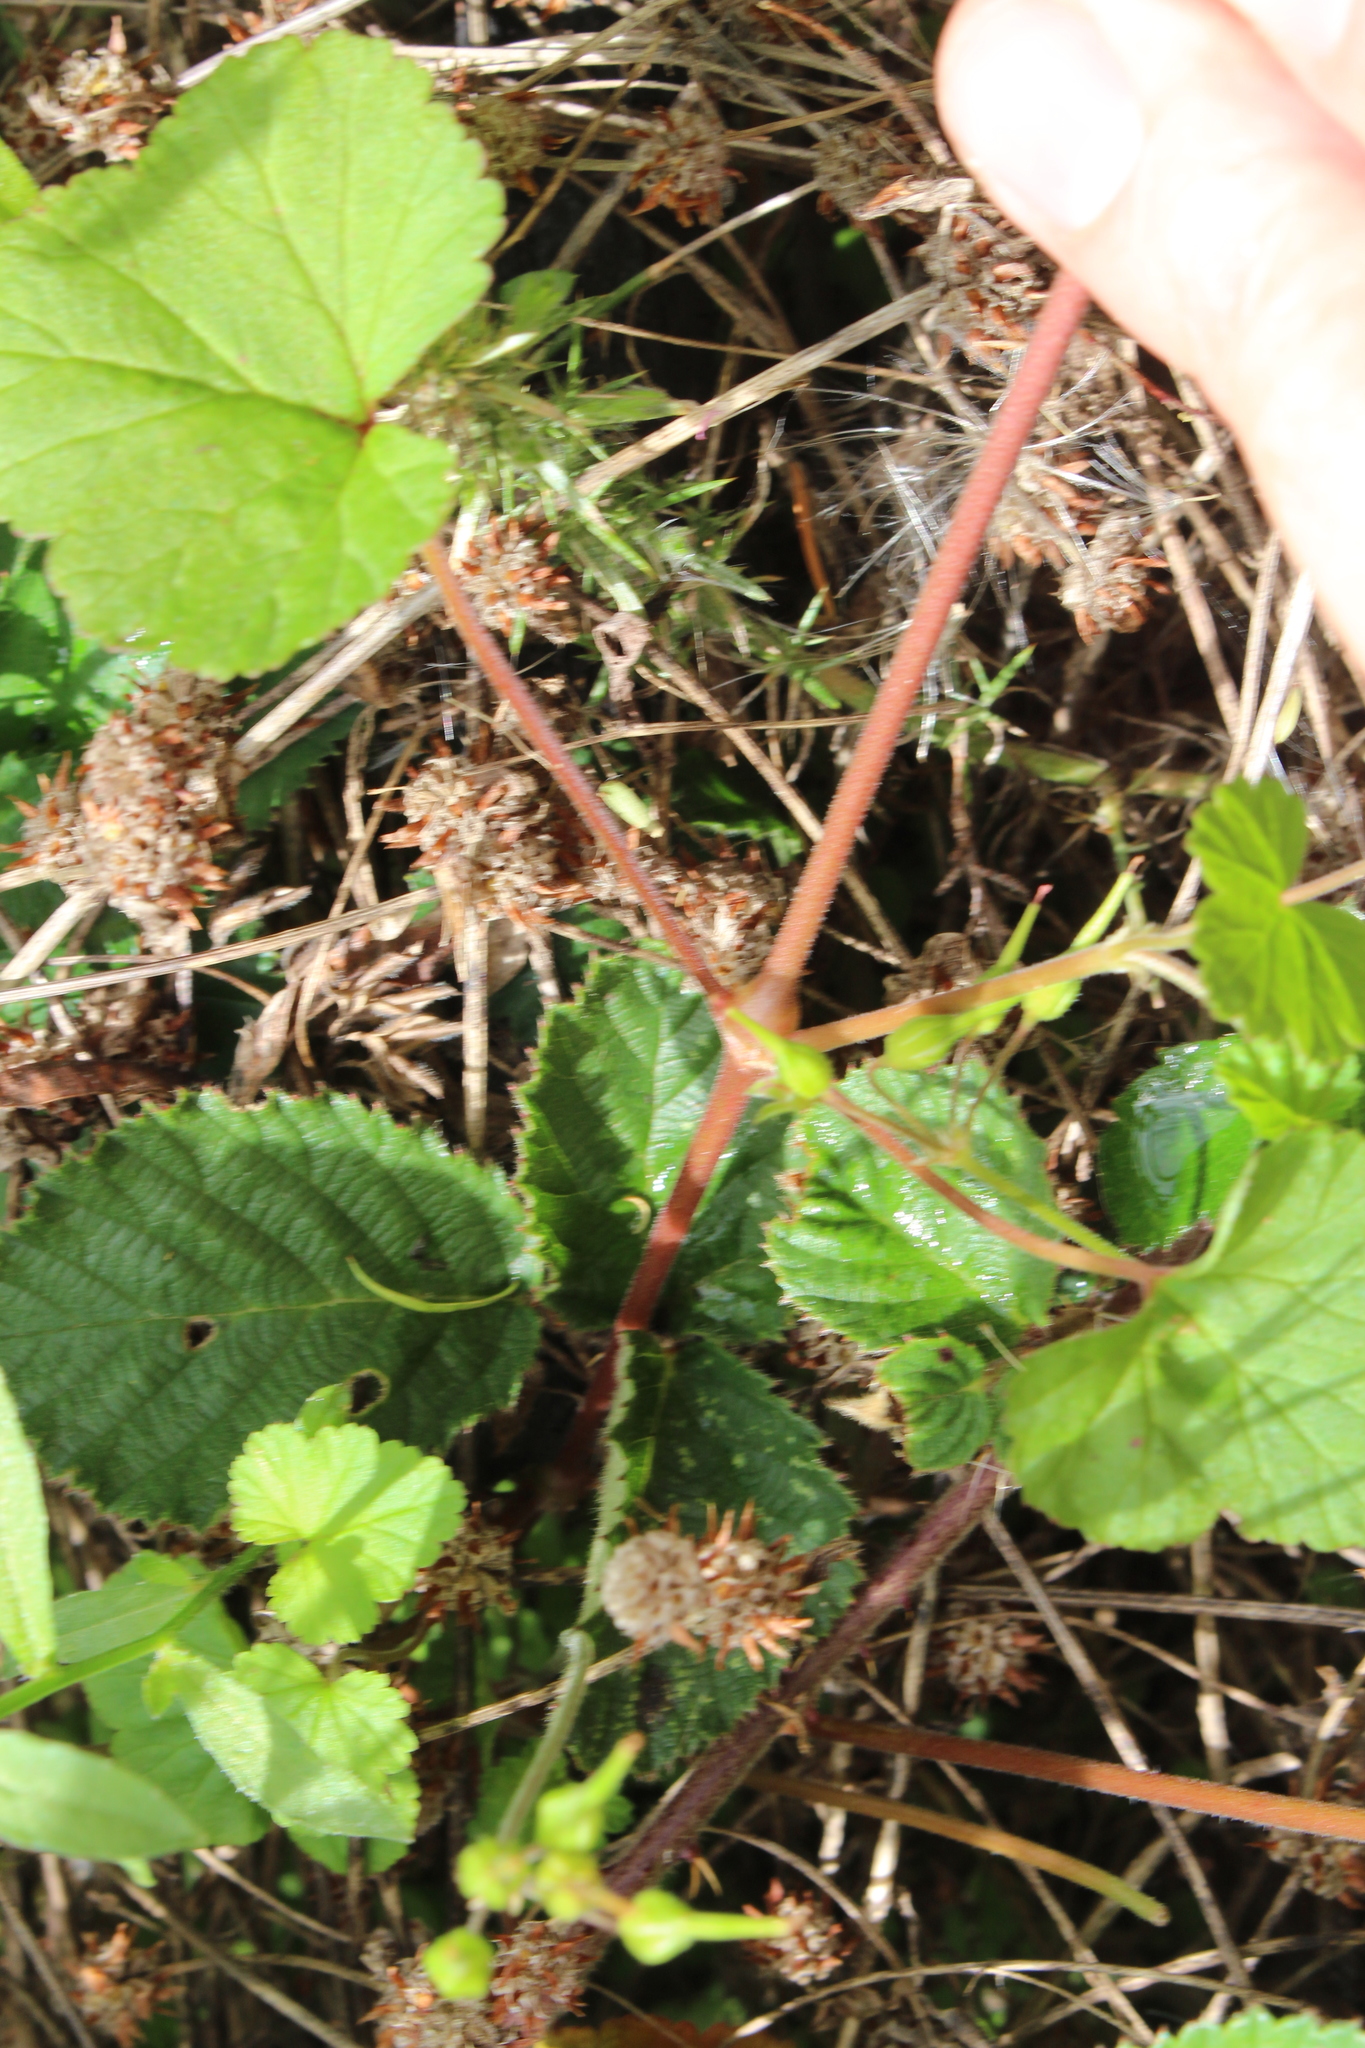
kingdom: Plantae
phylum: Tracheophyta
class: Magnoliopsida
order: Geraniales
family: Geraniaceae
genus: Pelargonium
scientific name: Pelargonium inodorum
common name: Kopata geranium
